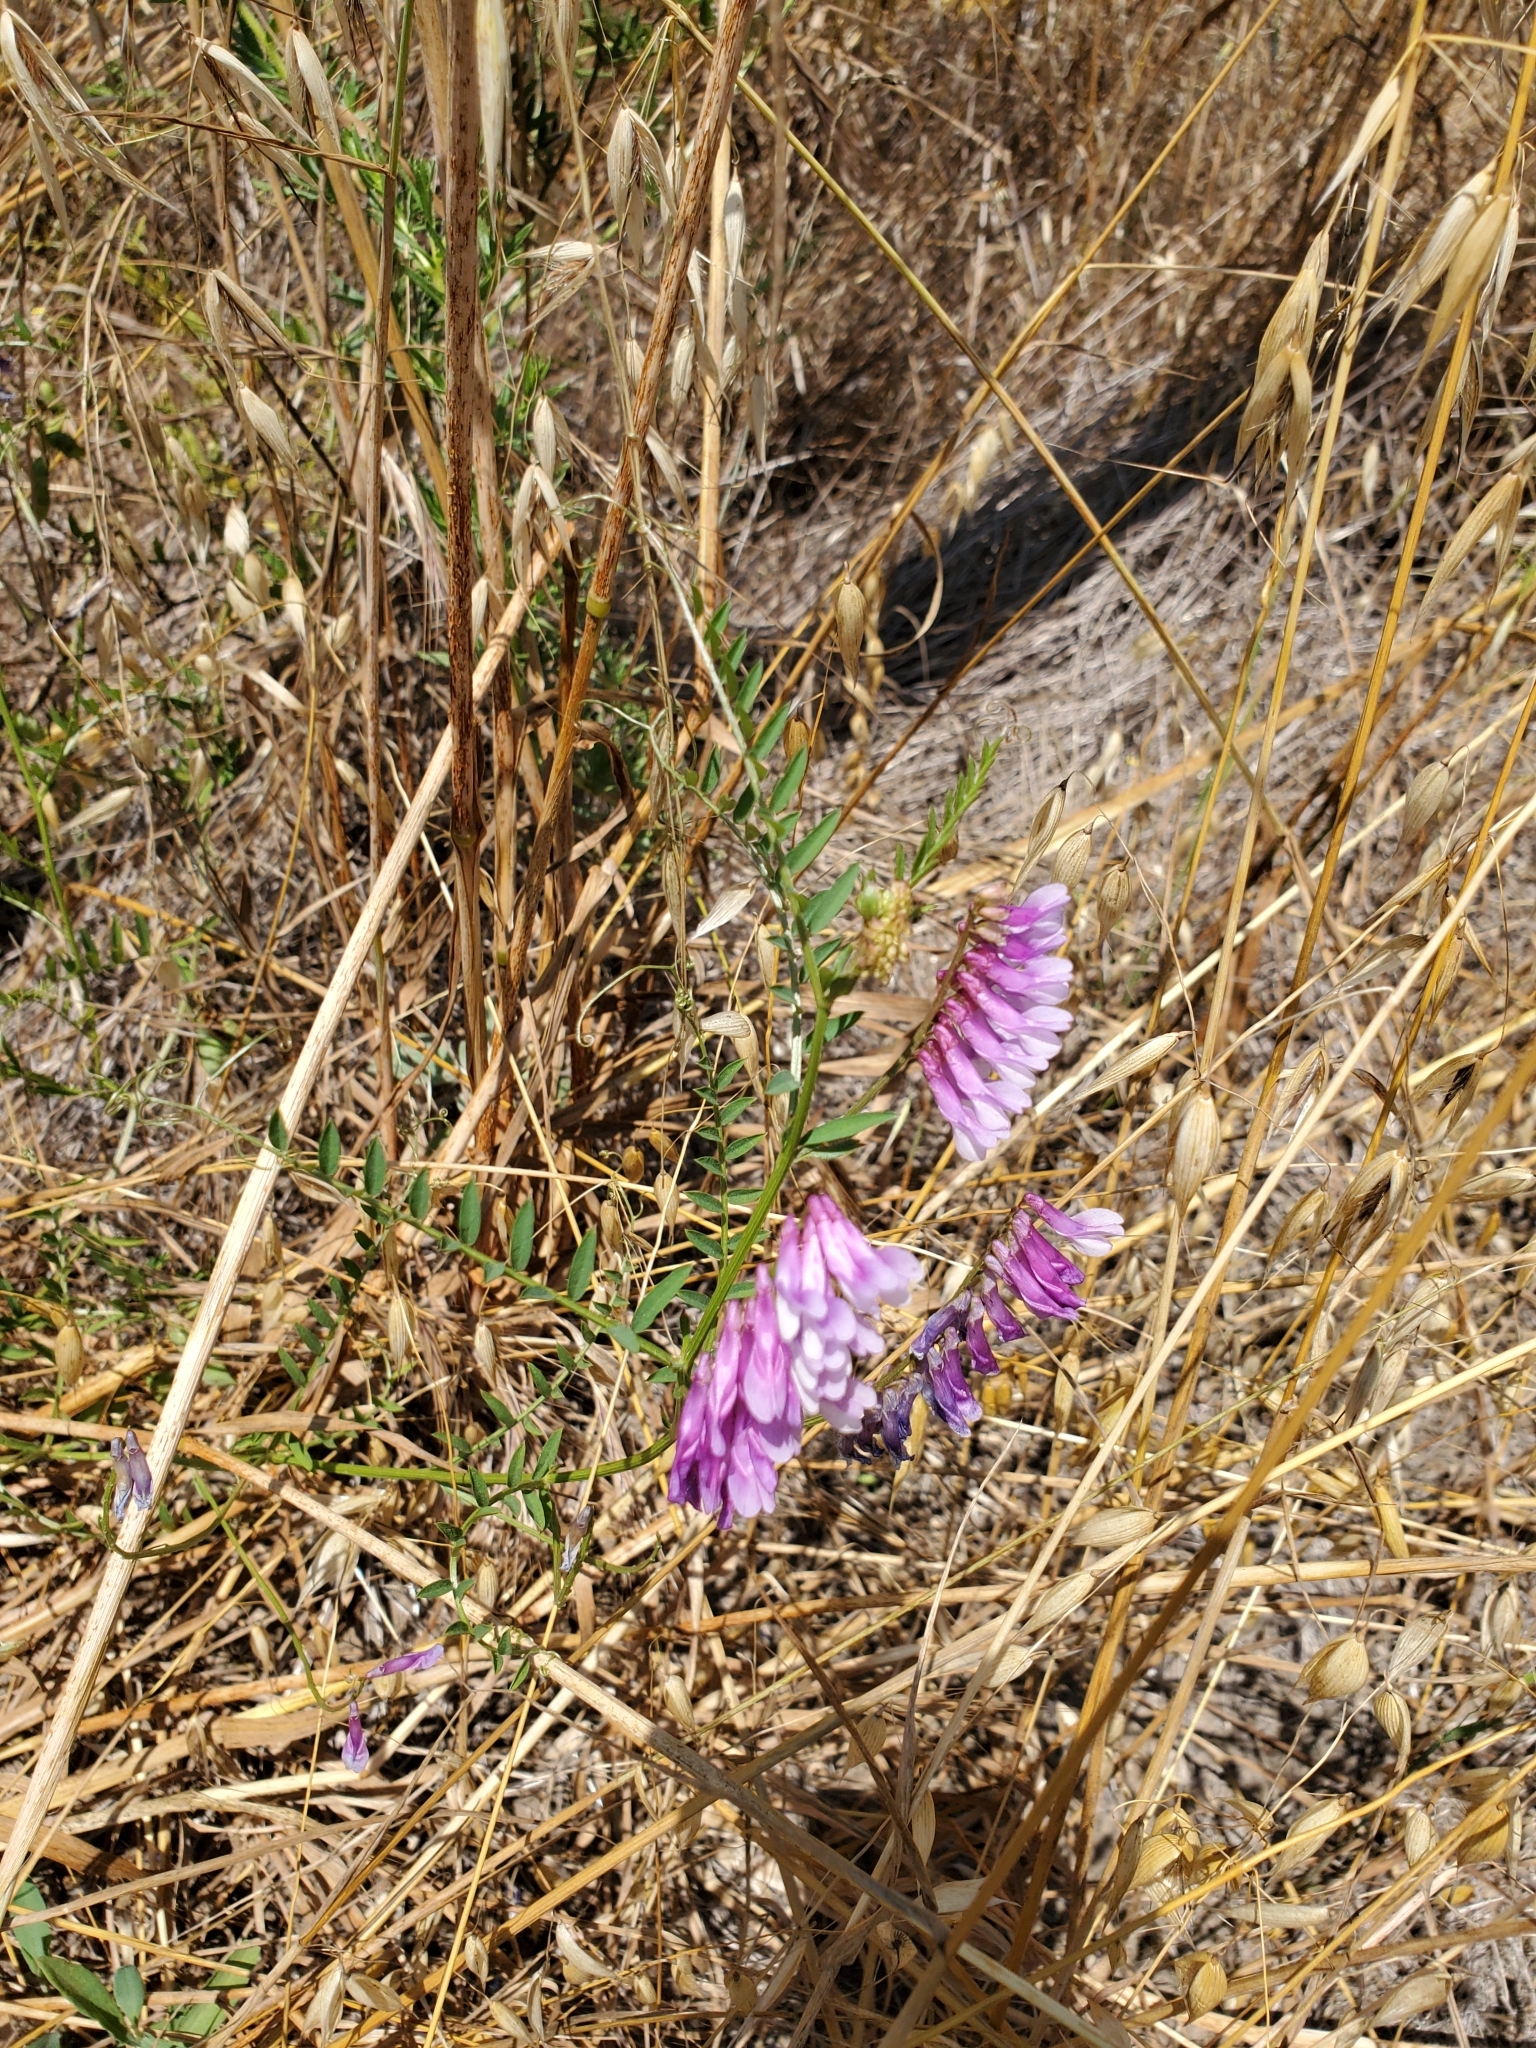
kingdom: Plantae
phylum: Tracheophyta
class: Magnoliopsida
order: Fabales
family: Fabaceae
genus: Vicia
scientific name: Vicia villosa
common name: Fodder vetch
